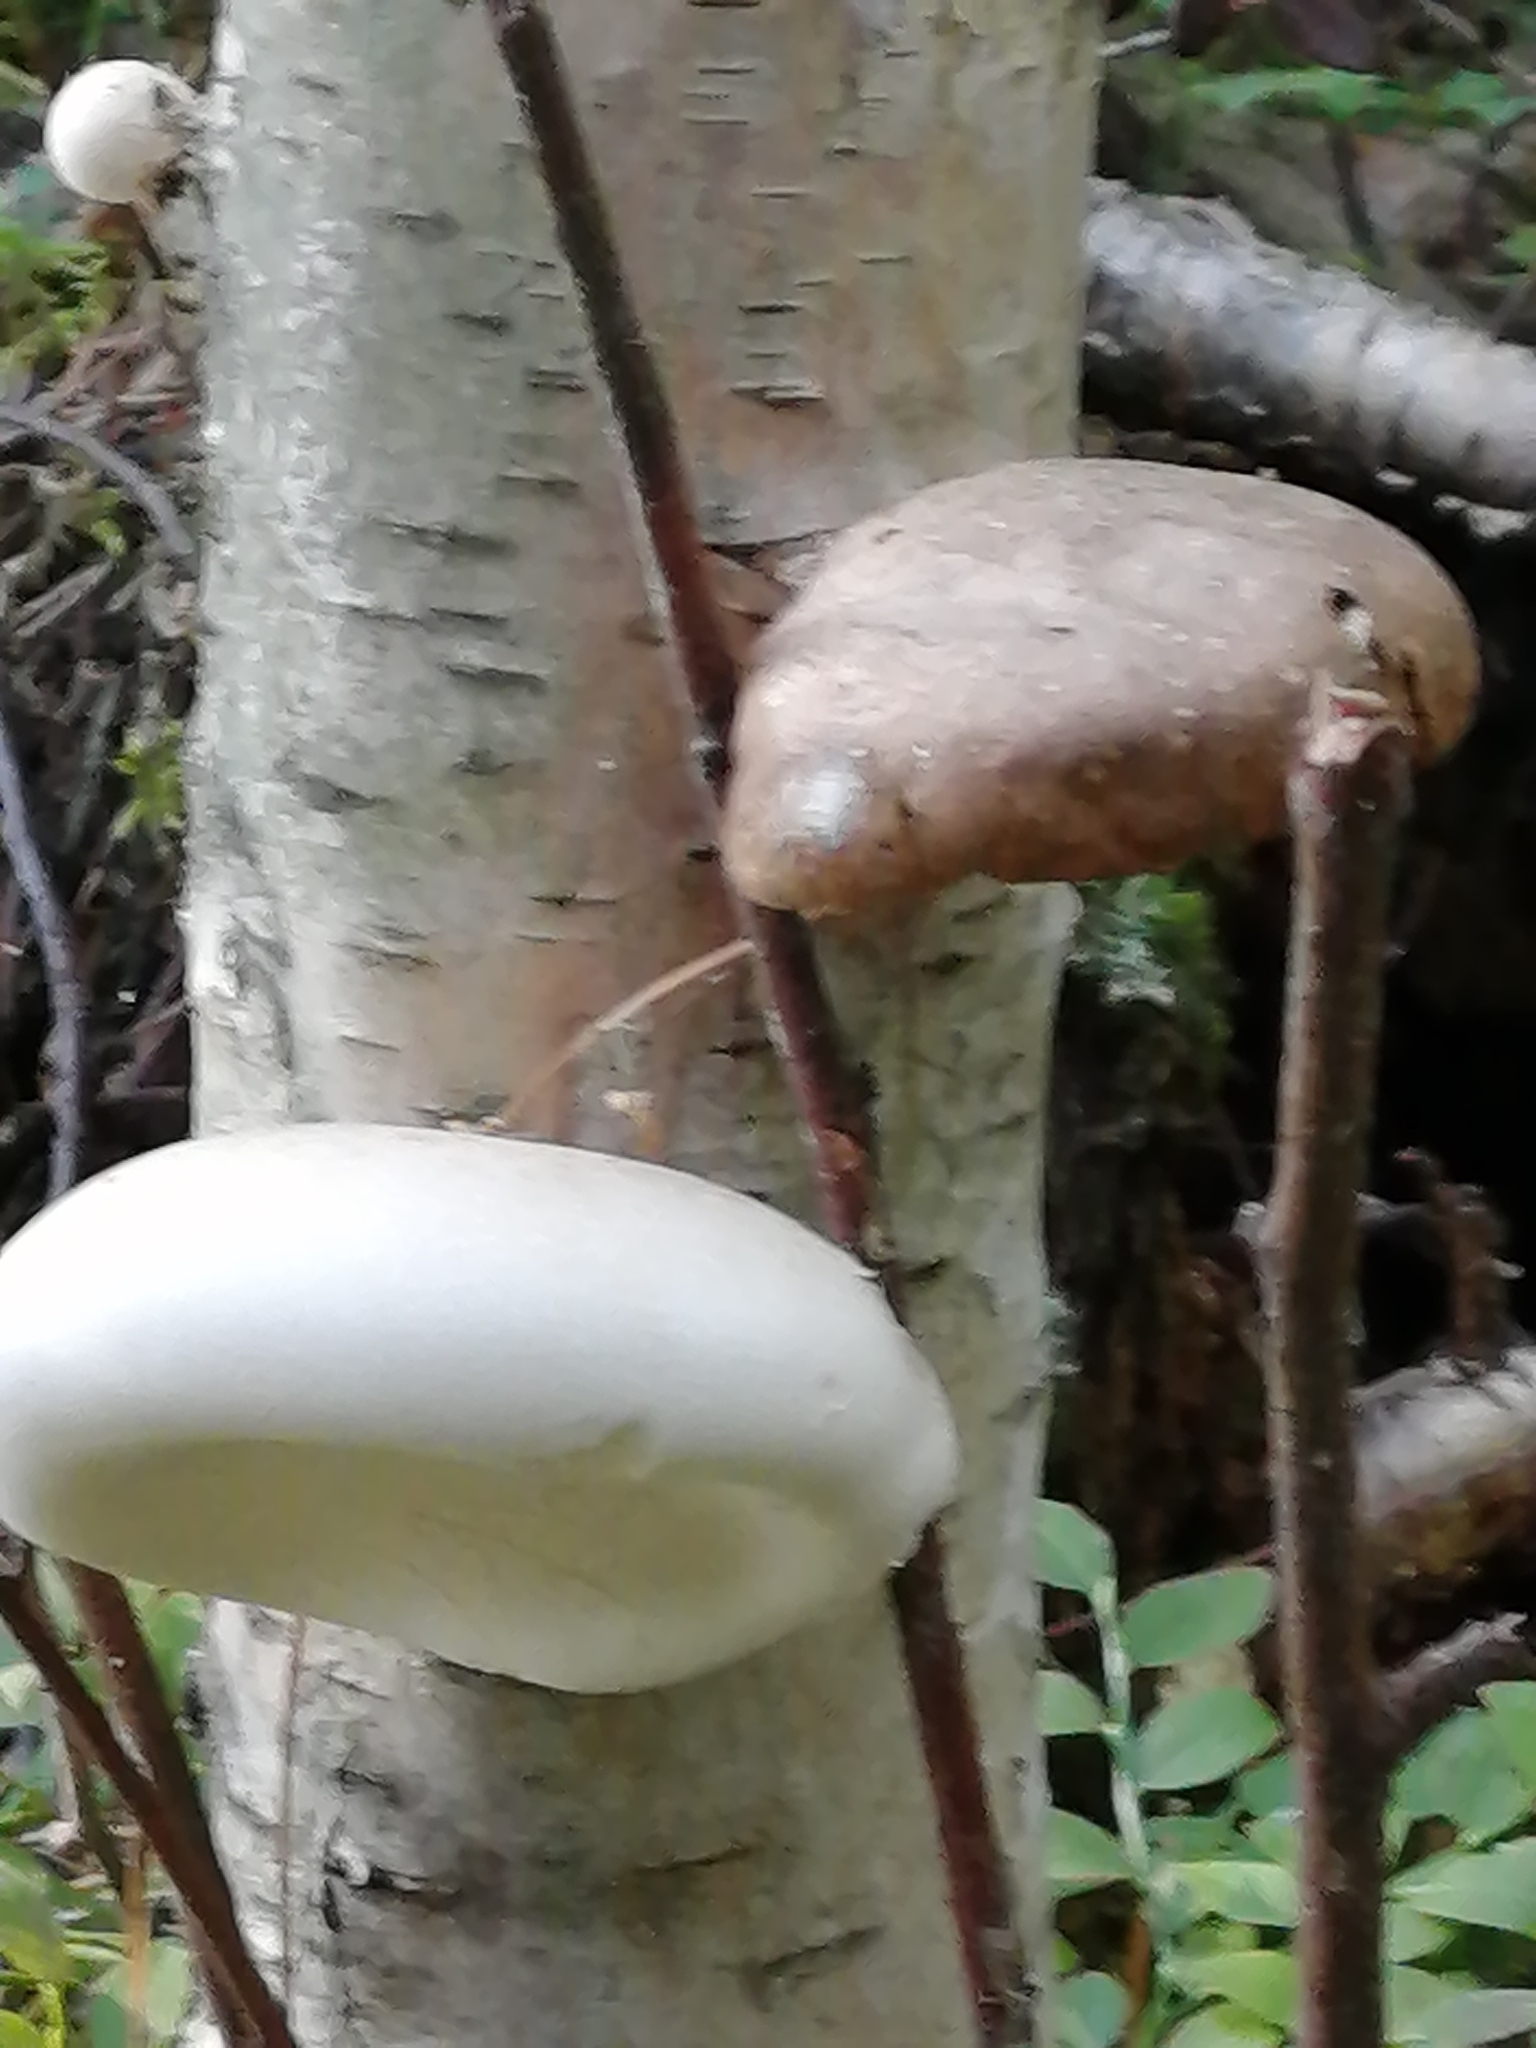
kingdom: Fungi
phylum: Basidiomycota
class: Agaricomycetes
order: Polyporales
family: Fomitopsidaceae
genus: Fomitopsis
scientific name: Fomitopsis betulina
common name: Birch polypore
